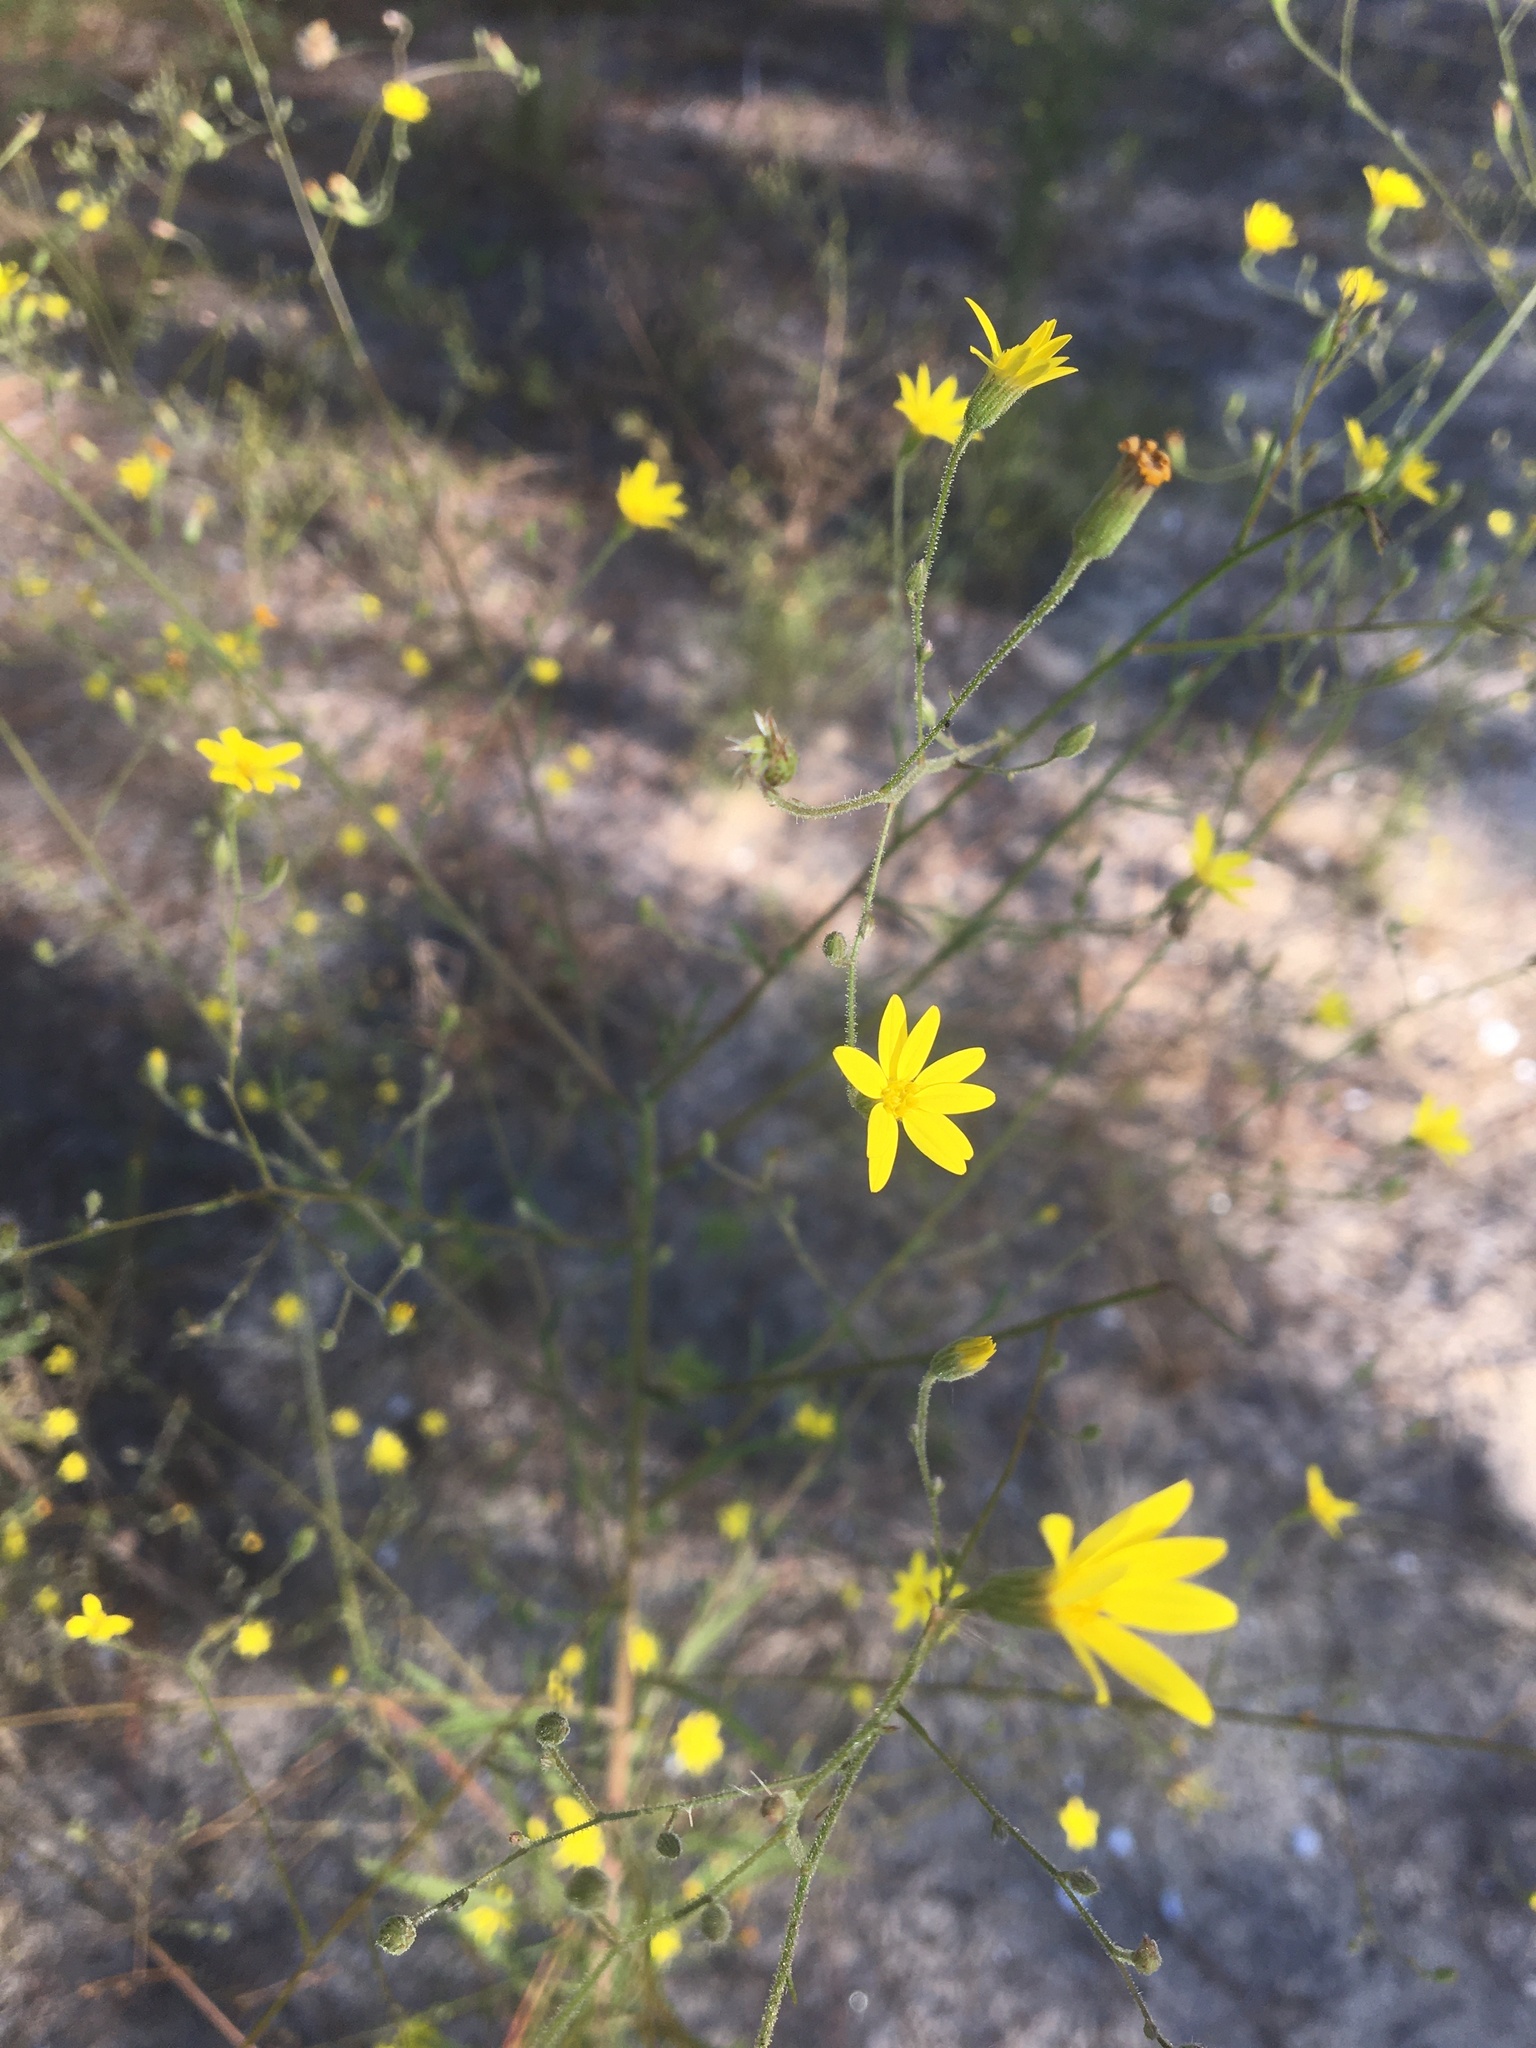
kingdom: Plantae
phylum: Tracheophyta
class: Magnoliopsida
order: Asterales
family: Asteraceae
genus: Croptilon
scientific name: Croptilon divaricatum
